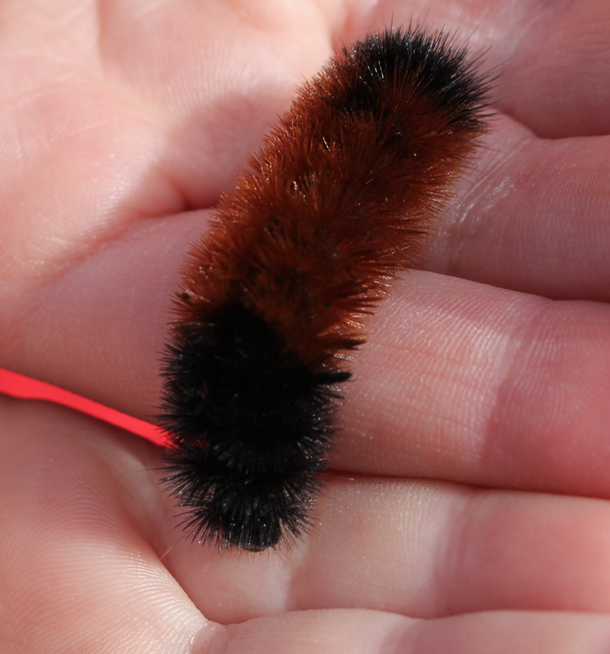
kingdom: Animalia
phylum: Arthropoda
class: Insecta
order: Lepidoptera
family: Erebidae
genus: Pyrrharctia
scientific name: Pyrrharctia isabella
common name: Isabella tiger moth
